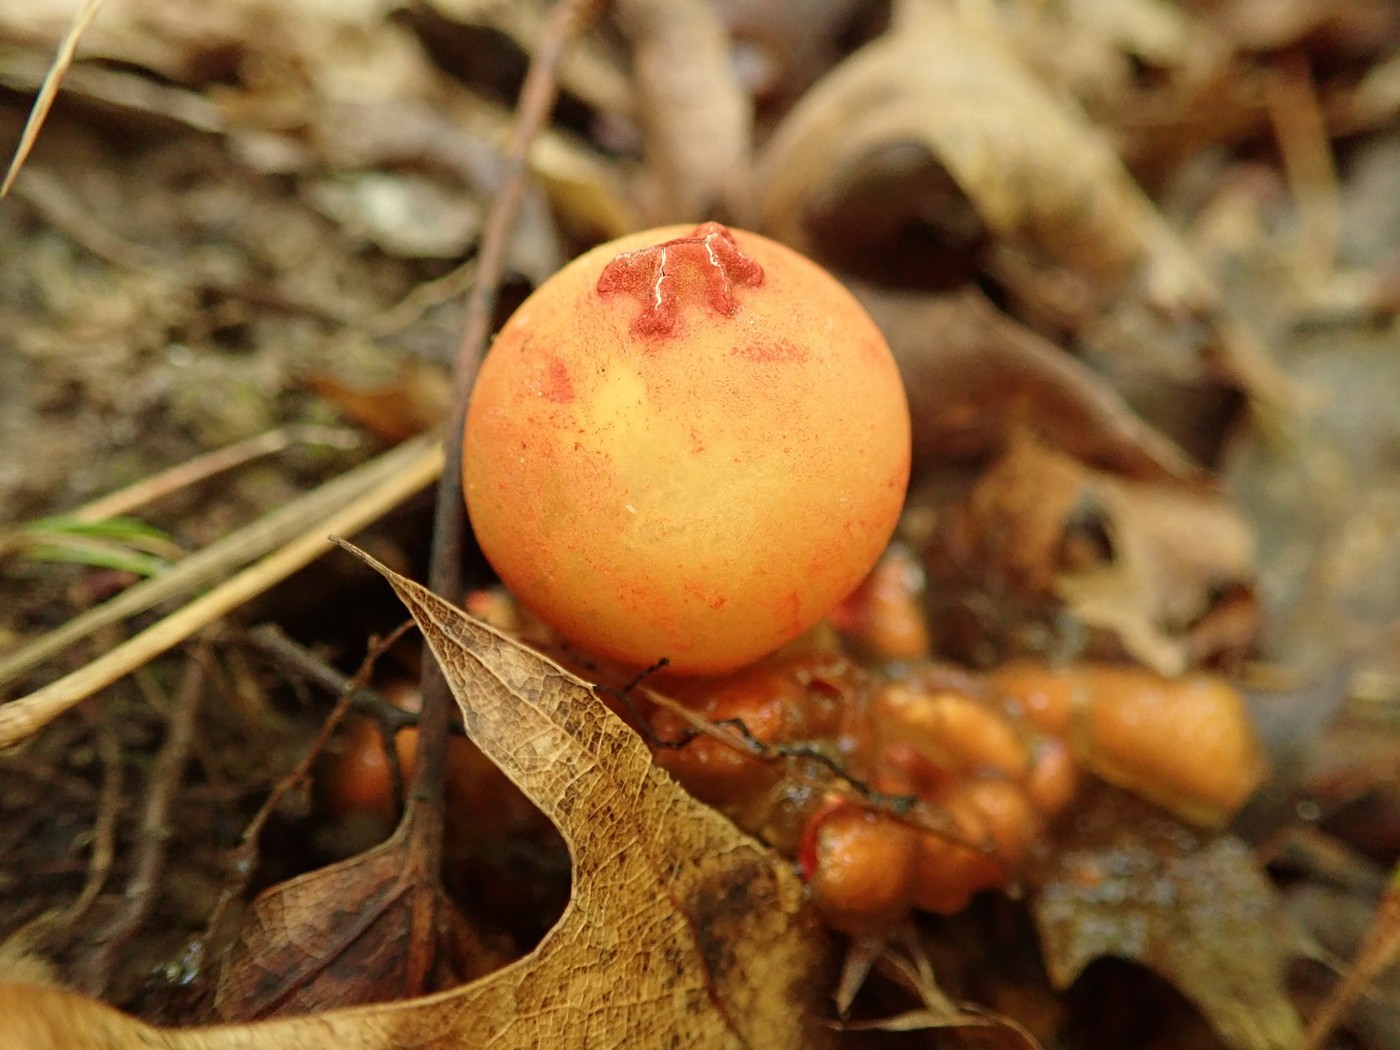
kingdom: Fungi
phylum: Basidiomycota
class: Agaricomycetes
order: Boletales
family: Calostomataceae
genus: Calostoma
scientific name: Calostoma cinnabarinum
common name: Stalked puffball-in-aspic
